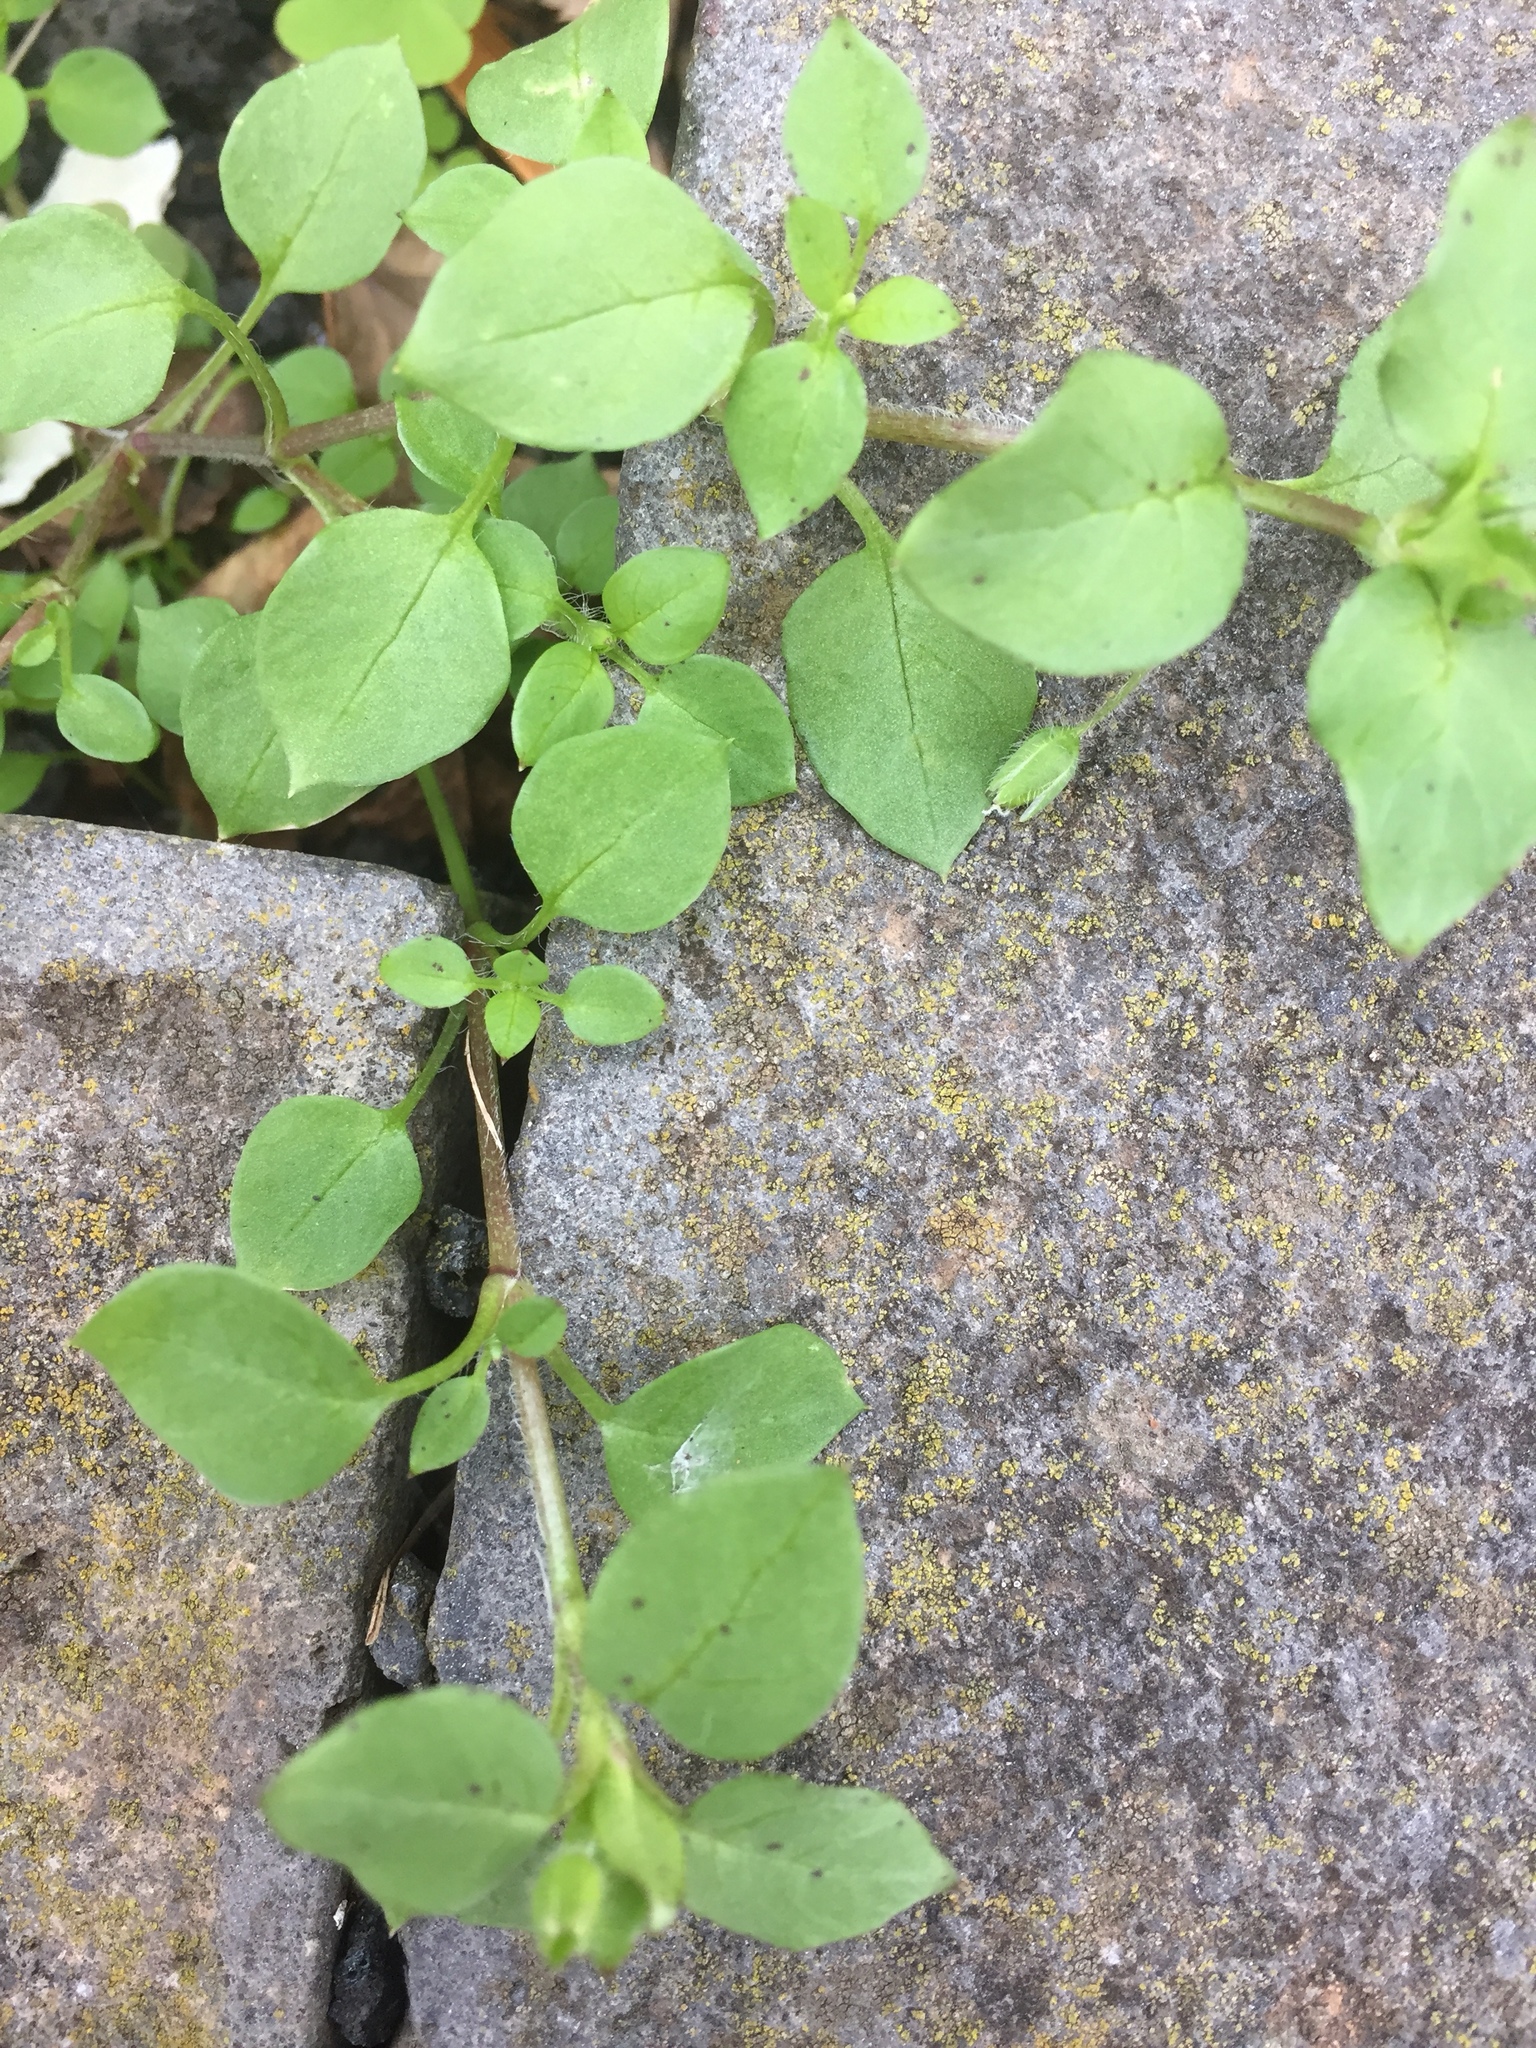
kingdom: Plantae
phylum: Tracheophyta
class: Magnoliopsida
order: Caryophyllales
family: Caryophyllaceae
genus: Stellaria
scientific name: Stellaria media
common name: Common chickweed
